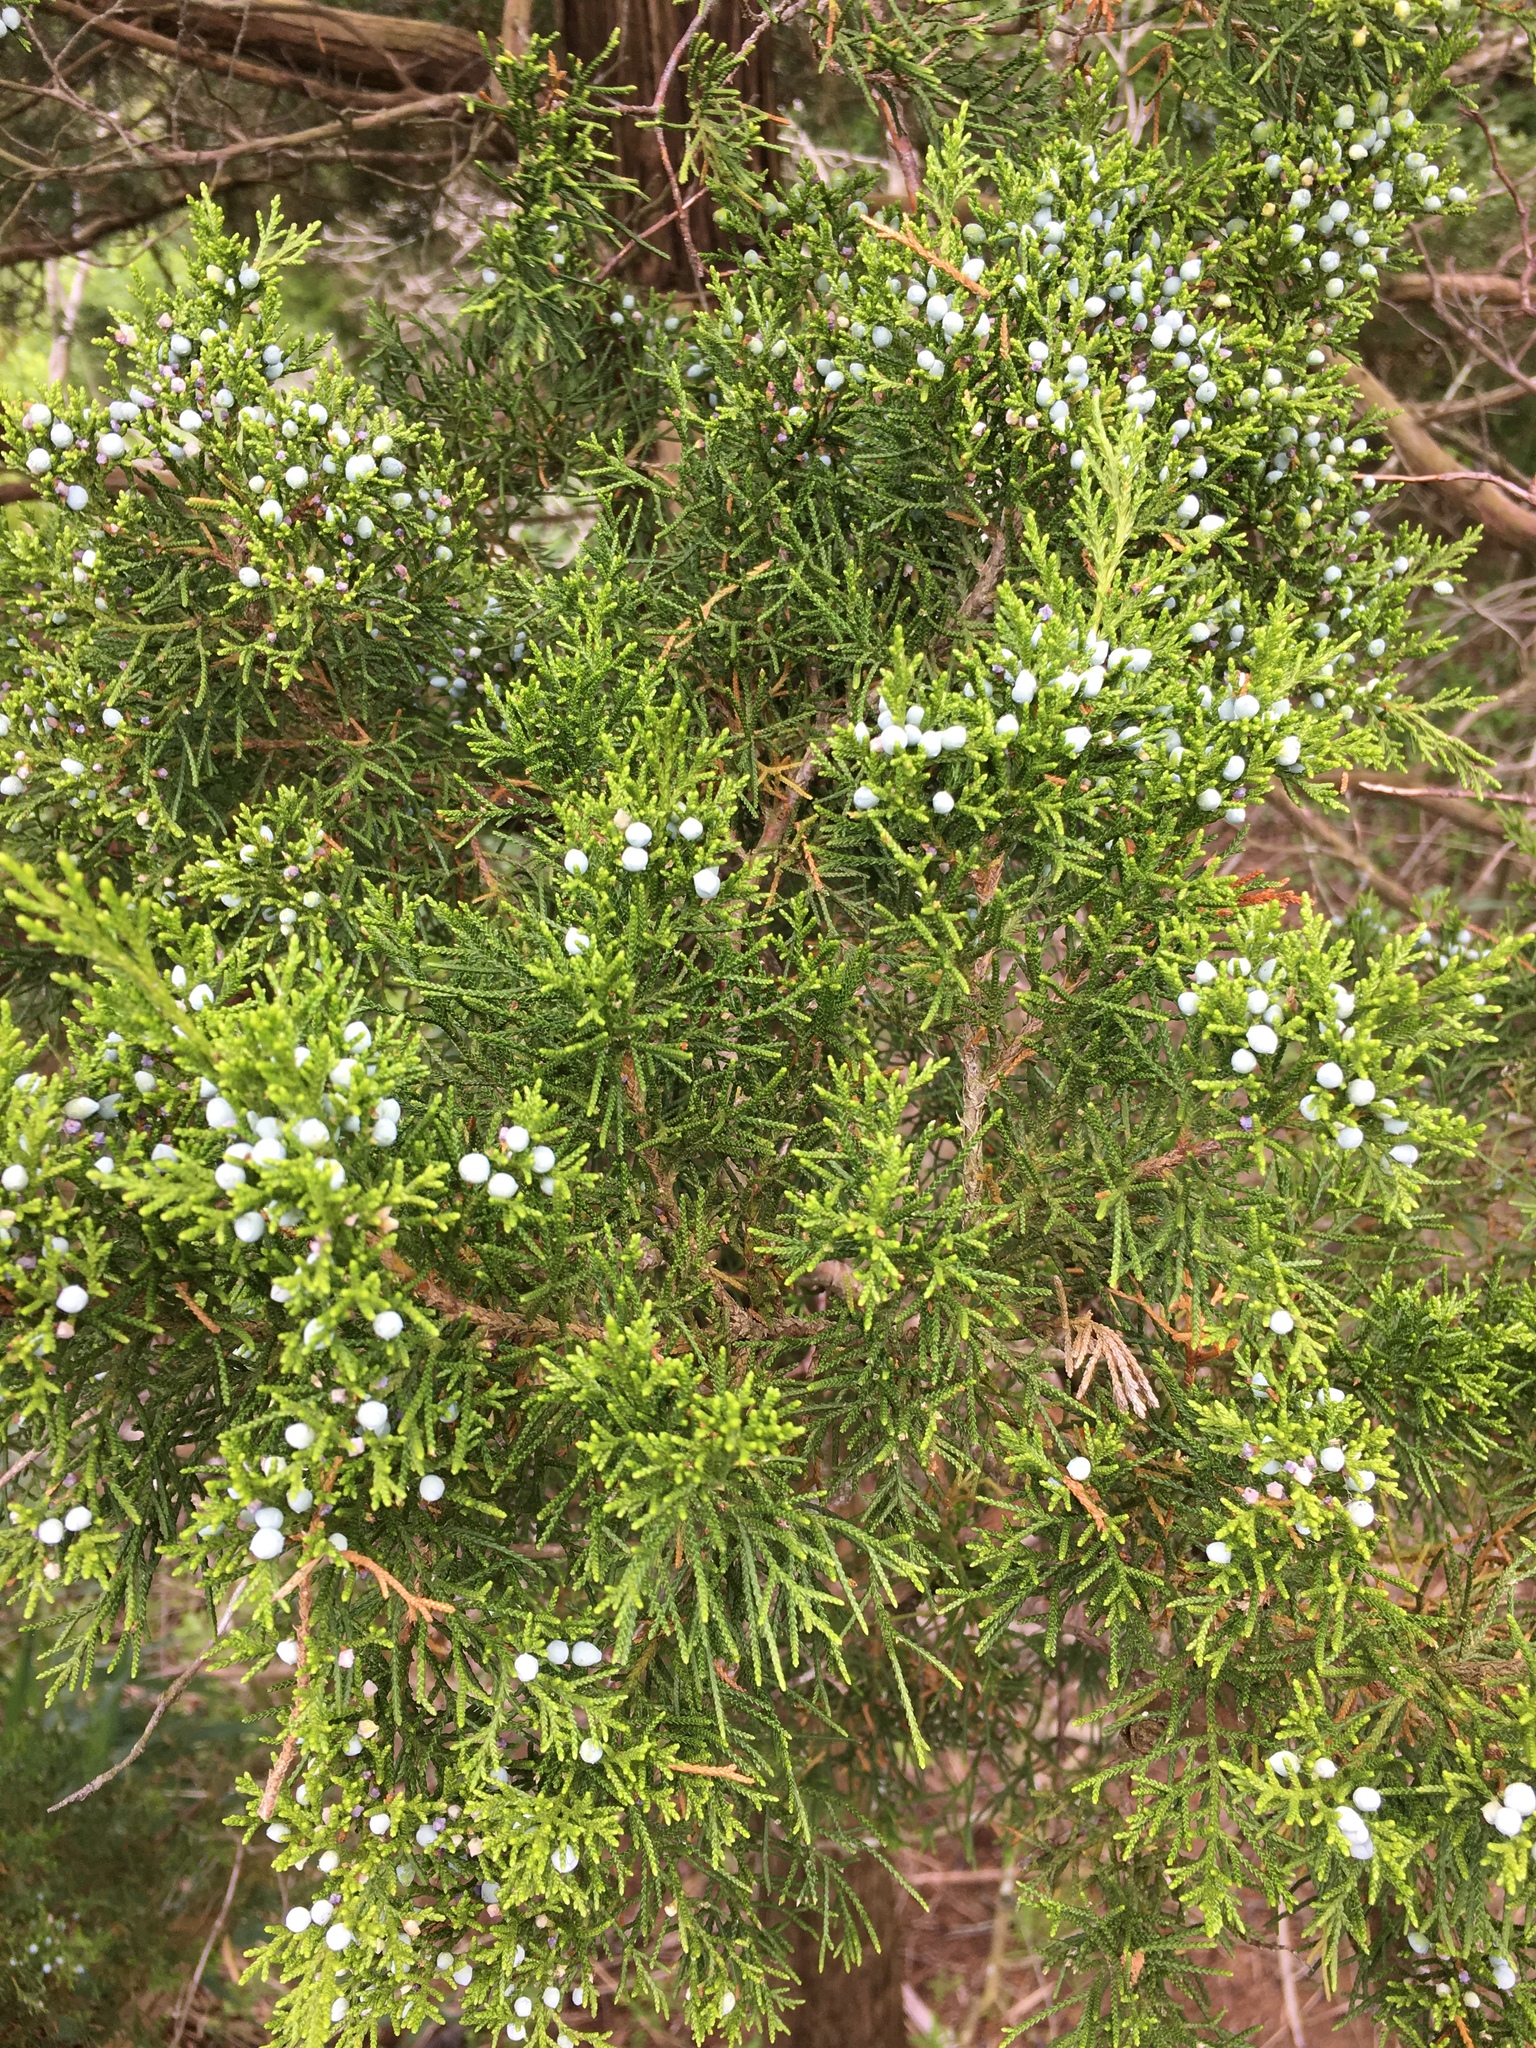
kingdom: Plantae
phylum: Tracheophyta
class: Pinopsida
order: Pinales
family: Cupressaceae
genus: Juniperus
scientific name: Juniperus virginiana
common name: Red juniper
